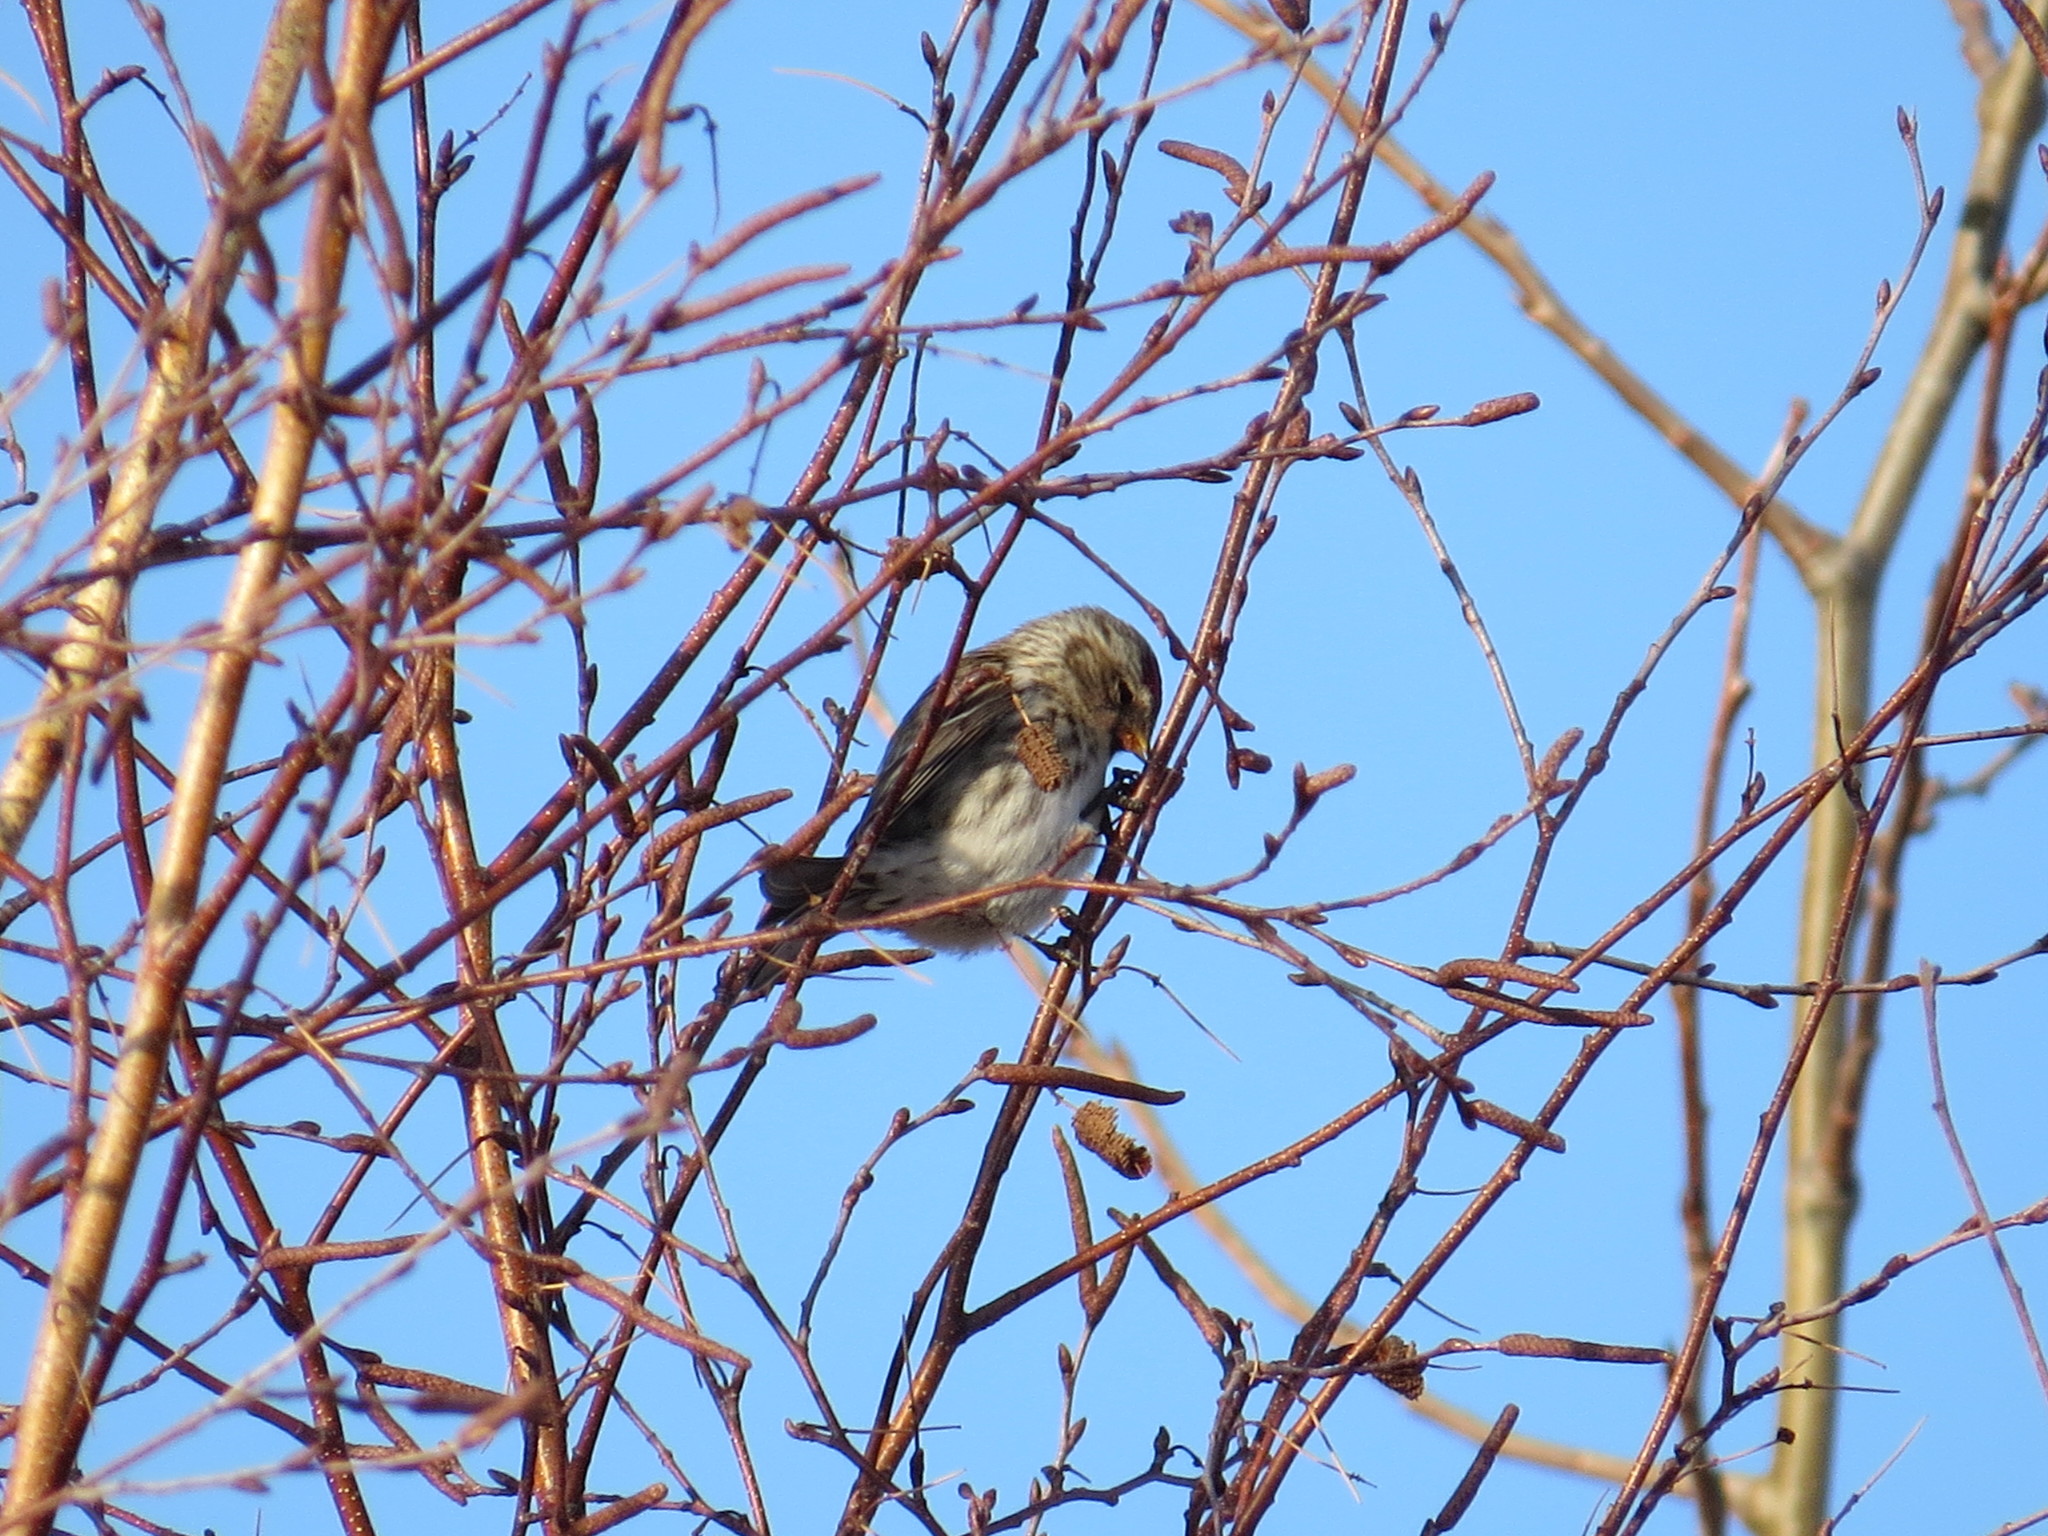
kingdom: Animalia
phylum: Chordata
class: Aves
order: Passeriformes
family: Fringillidae
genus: Acanthis
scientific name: Acanthis flammea
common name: Common redpoll
